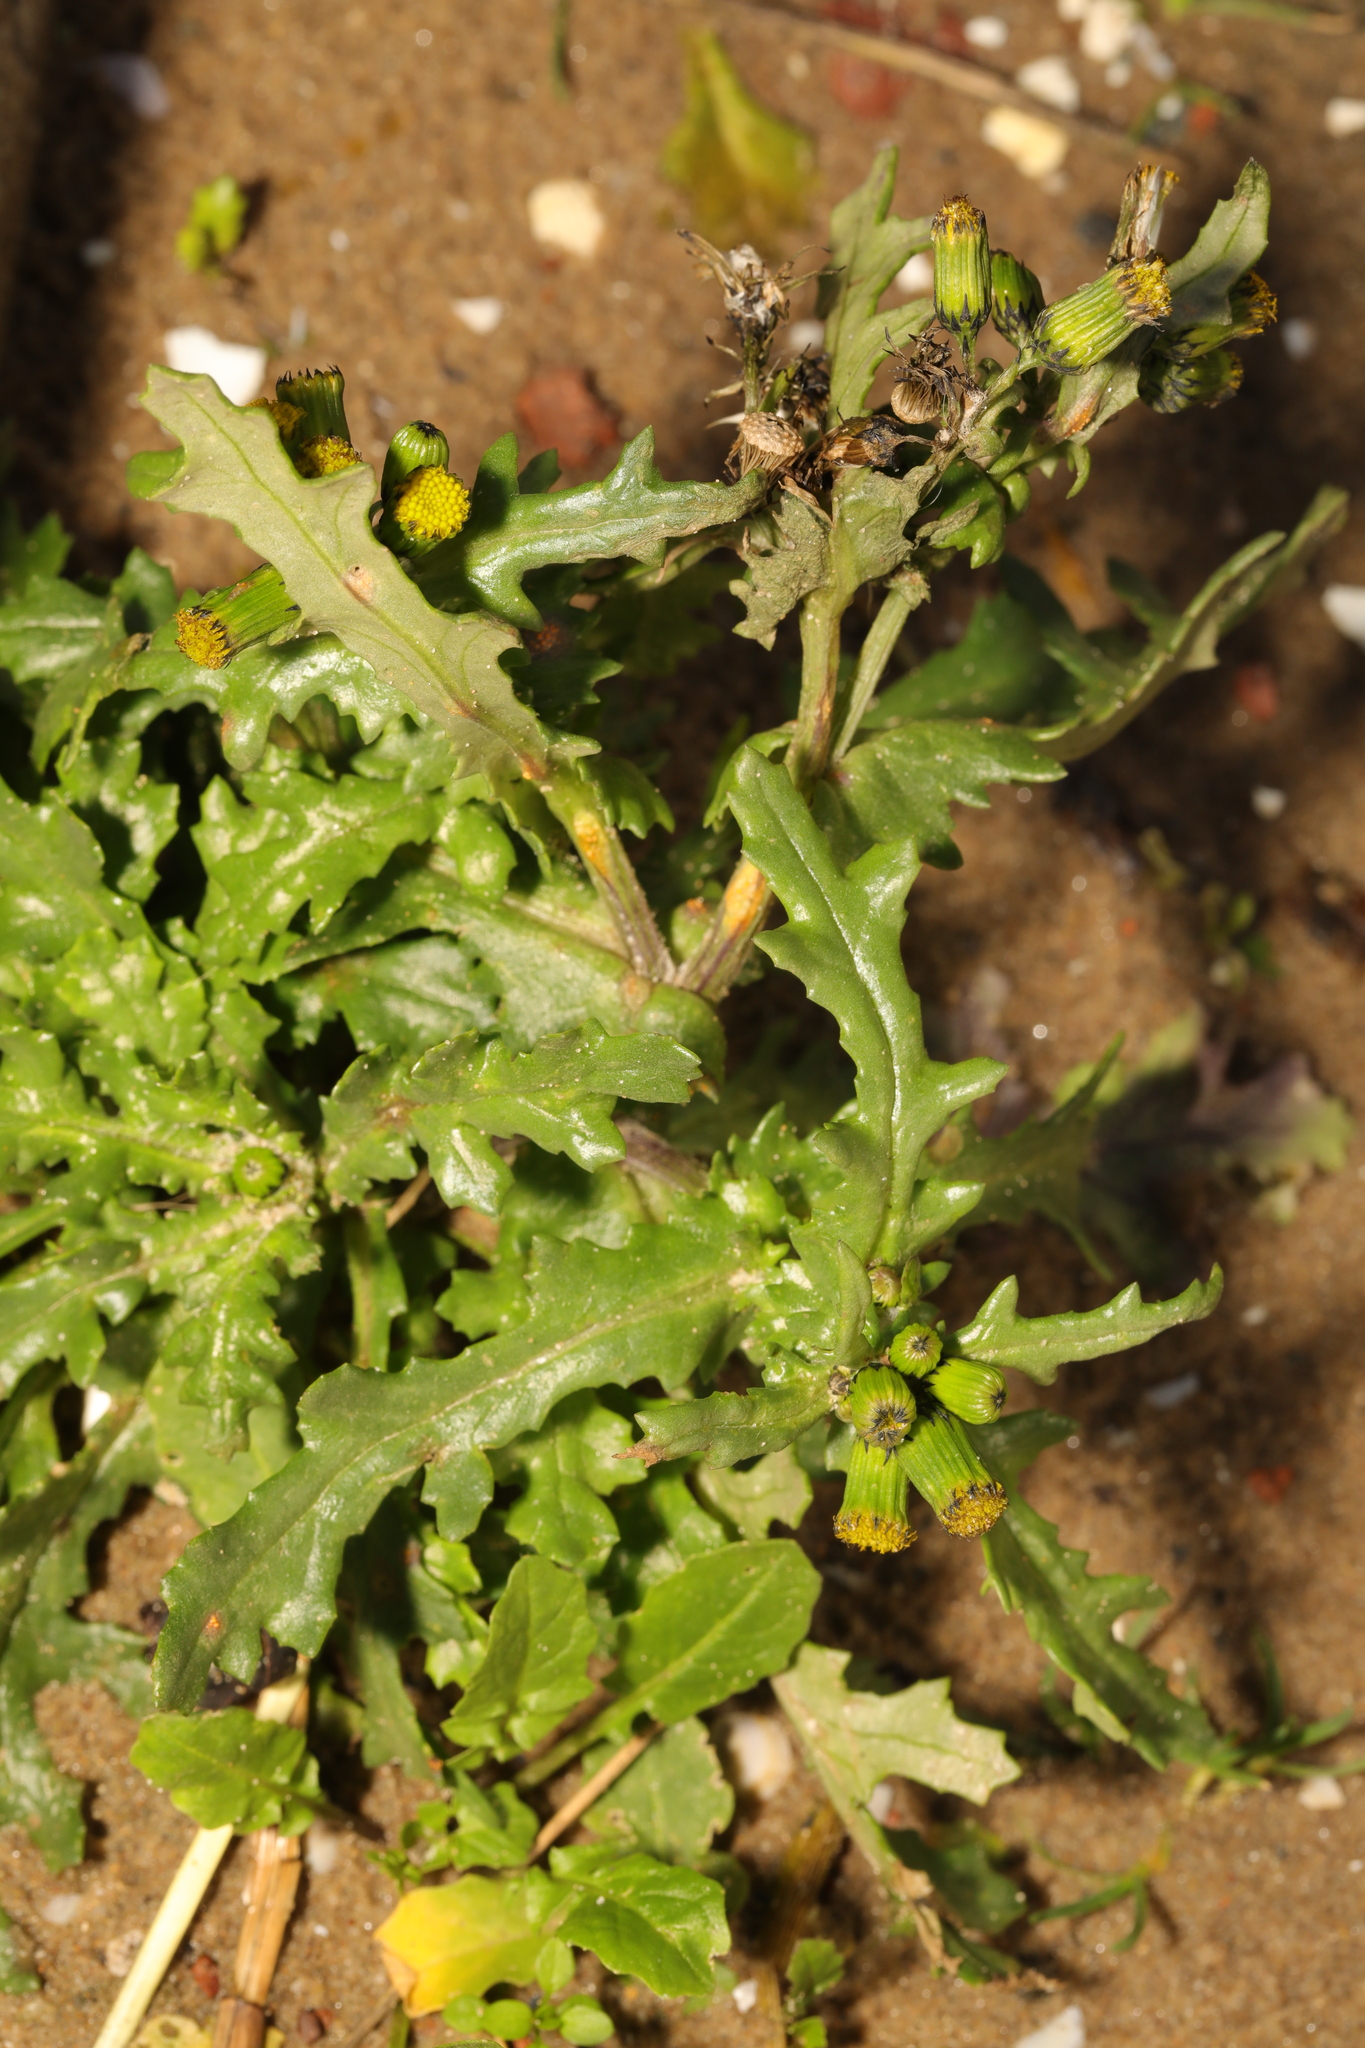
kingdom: Plantae
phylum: Tracheophyta
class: Magnoliopsida
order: Asterales
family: Asteraceae
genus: Senecio
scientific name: Senecio vulgaris
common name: Old-man-in-the-spring
